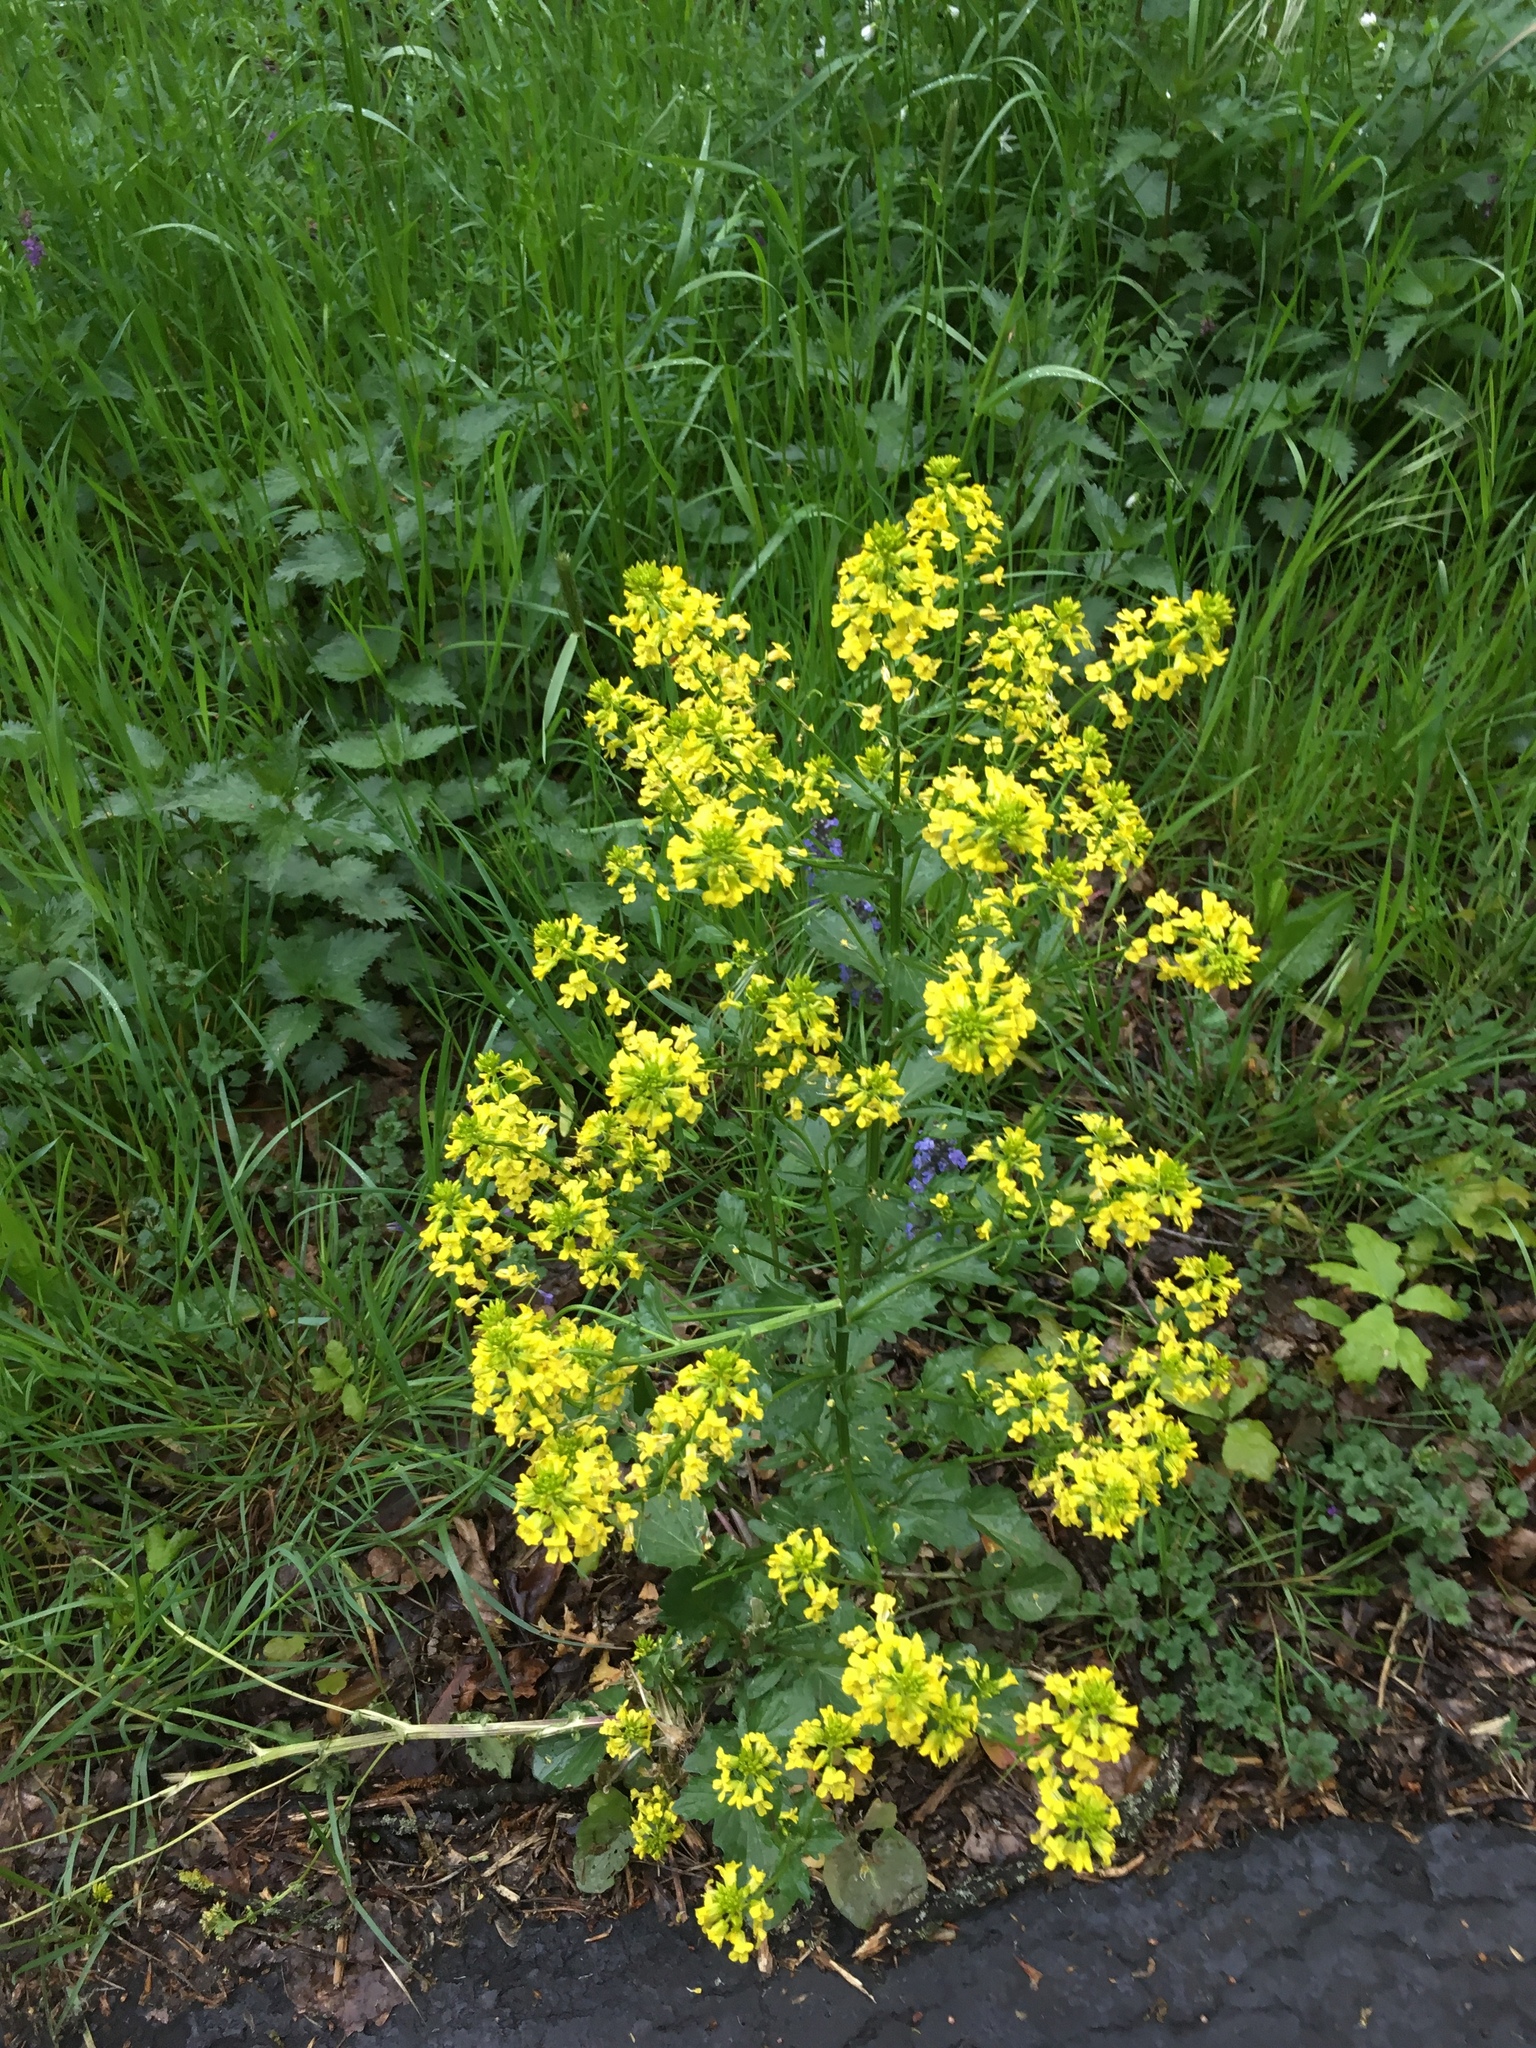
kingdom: Plantae
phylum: Tracheophyta
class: Magnoliopsida
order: Brassicales
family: Brassicaceae
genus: Barbarea
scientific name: Barbarea vulgaris
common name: Cressy-greens
